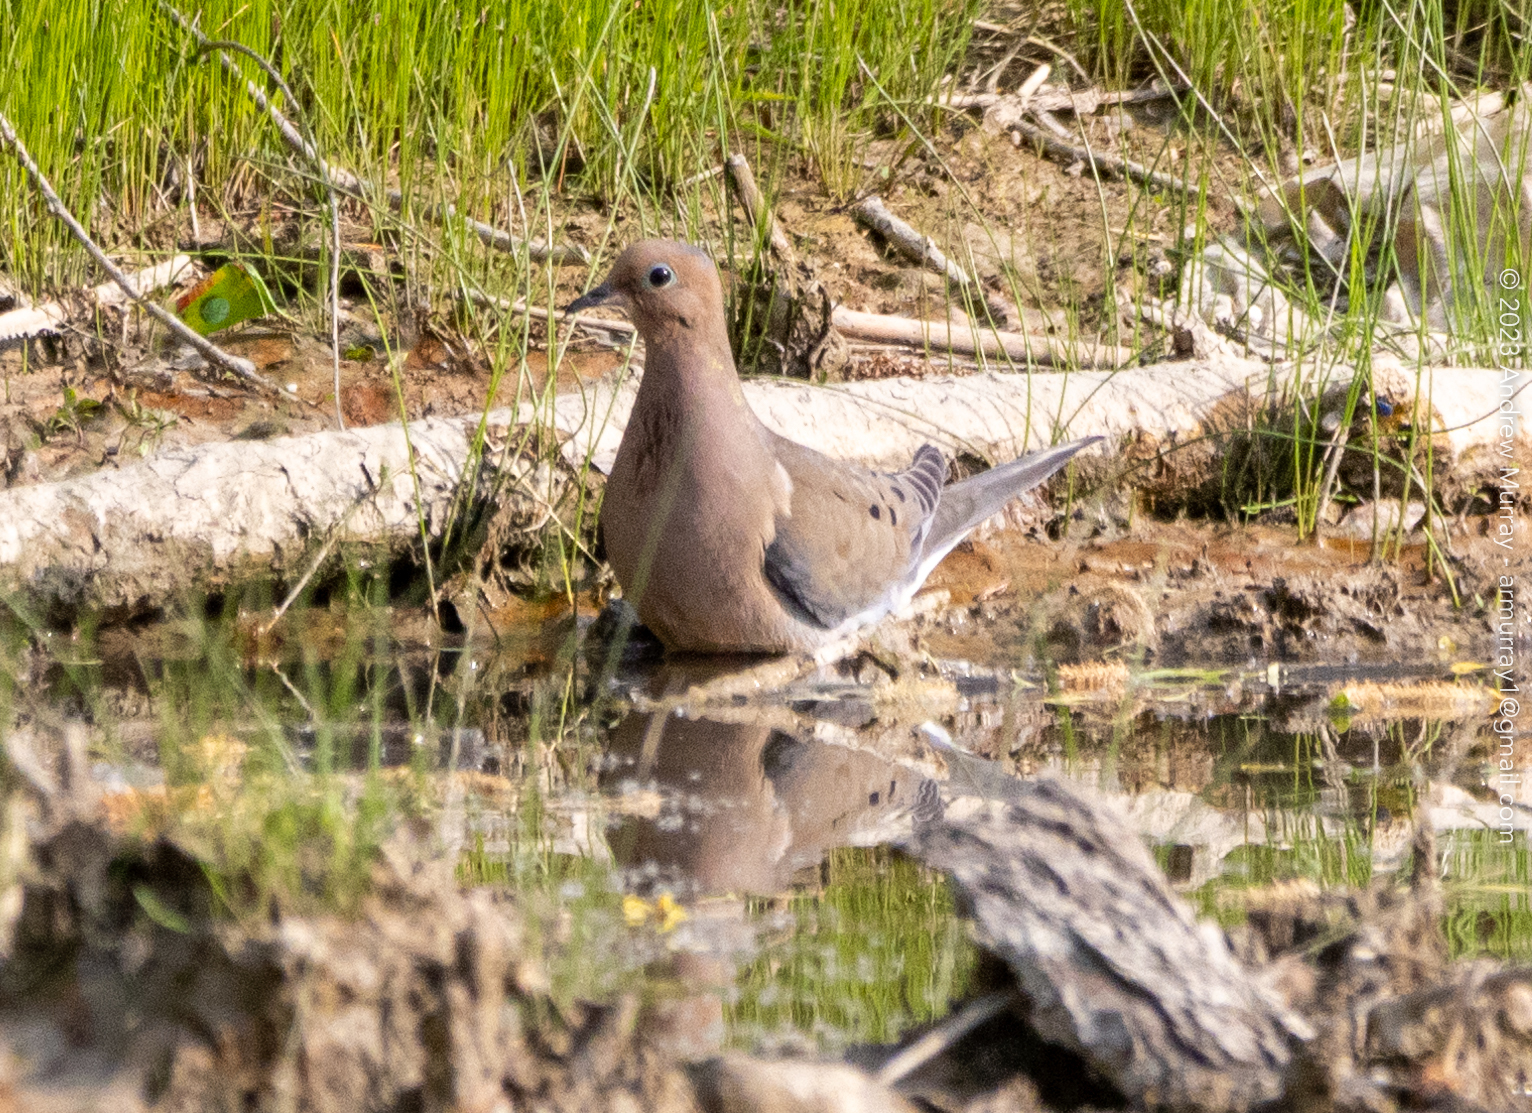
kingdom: Animalia
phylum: Chordata
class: Aves
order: Columbiformes
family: Columbidae
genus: Zenaida
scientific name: Zenaida macroura
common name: Mourning dove
